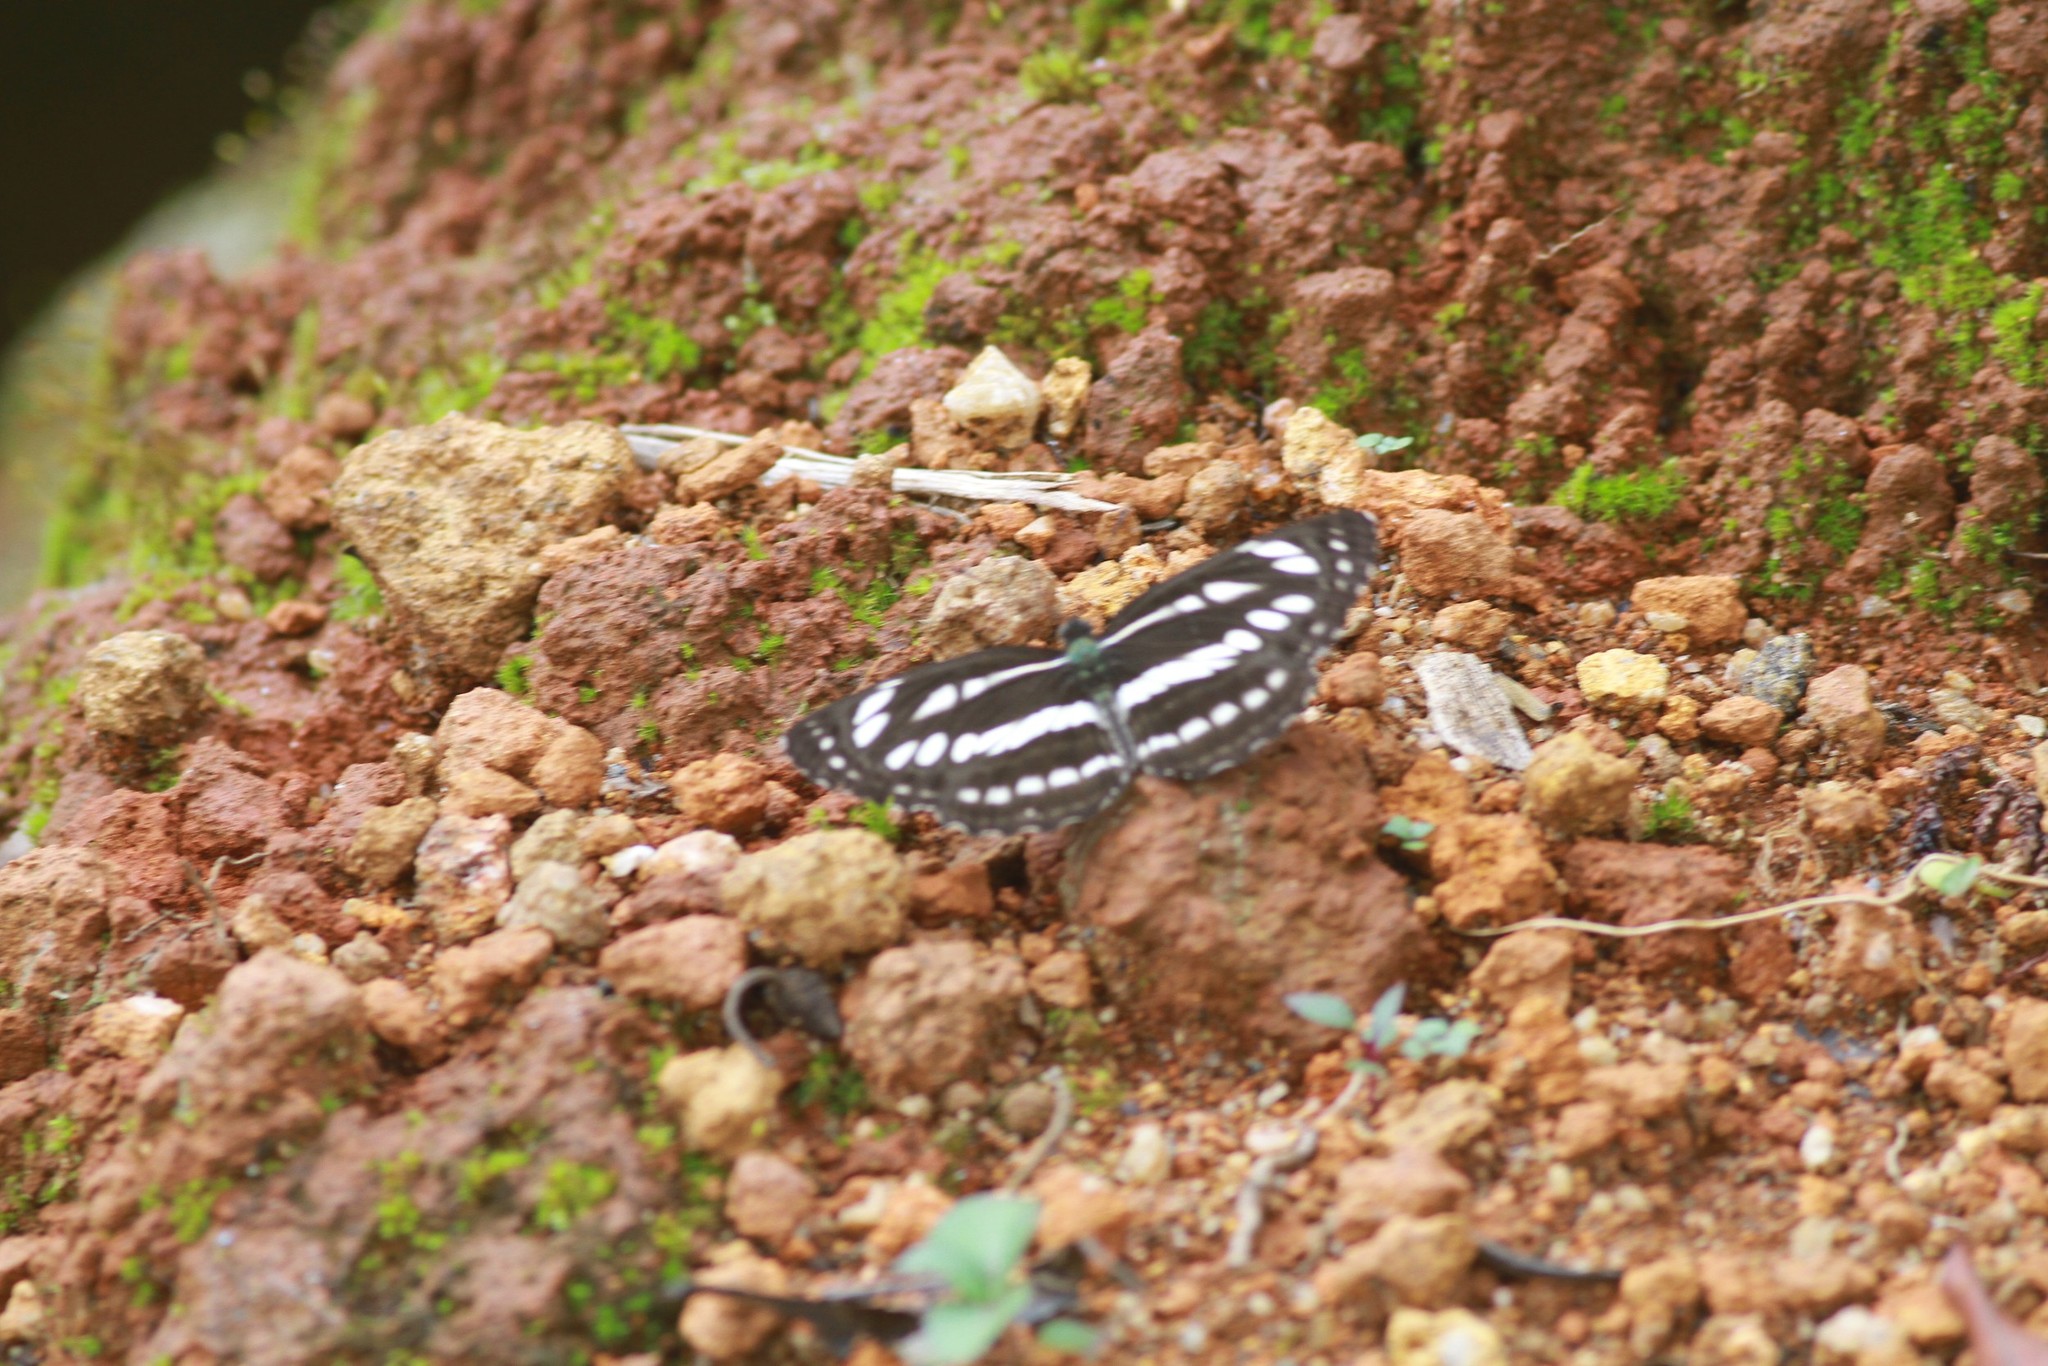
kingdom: Animalia
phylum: Arthropoda
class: Insecta
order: Lepidoptera
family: Nymphalidae
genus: Neptis
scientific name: Neptis hylas
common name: Common sailer
